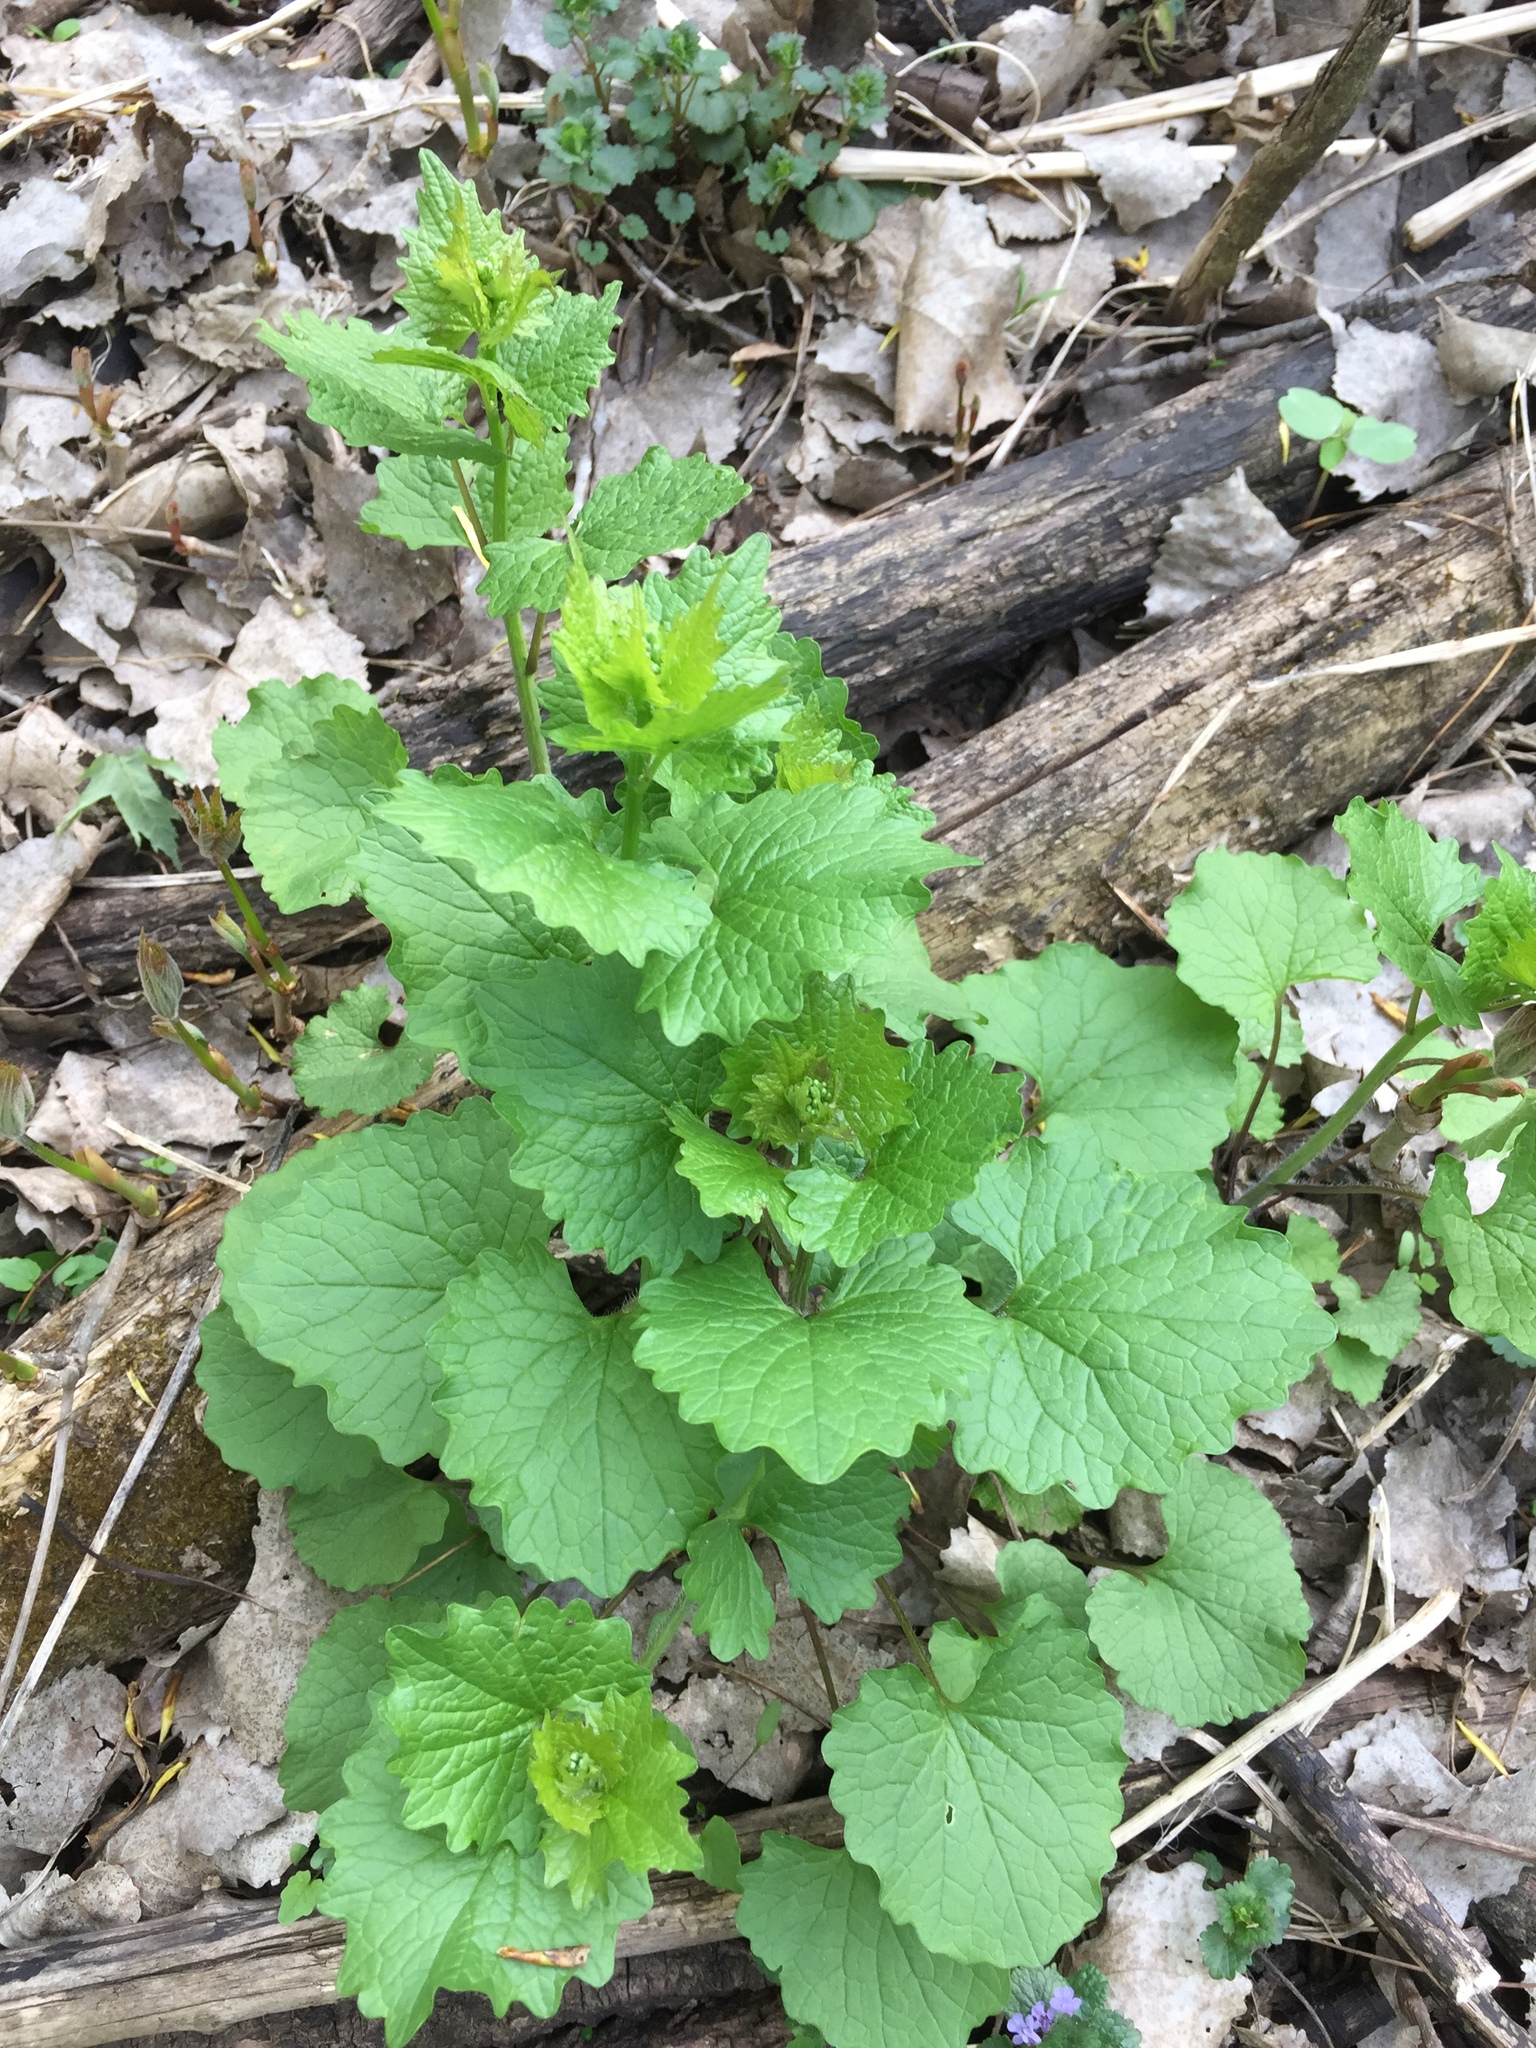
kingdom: Plantae
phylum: Tracheophyta
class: Magnoliopsida
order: Brassicales
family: Brassicaceae
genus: Alliaria
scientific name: Alliaria petiolata
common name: Garlic mustard
